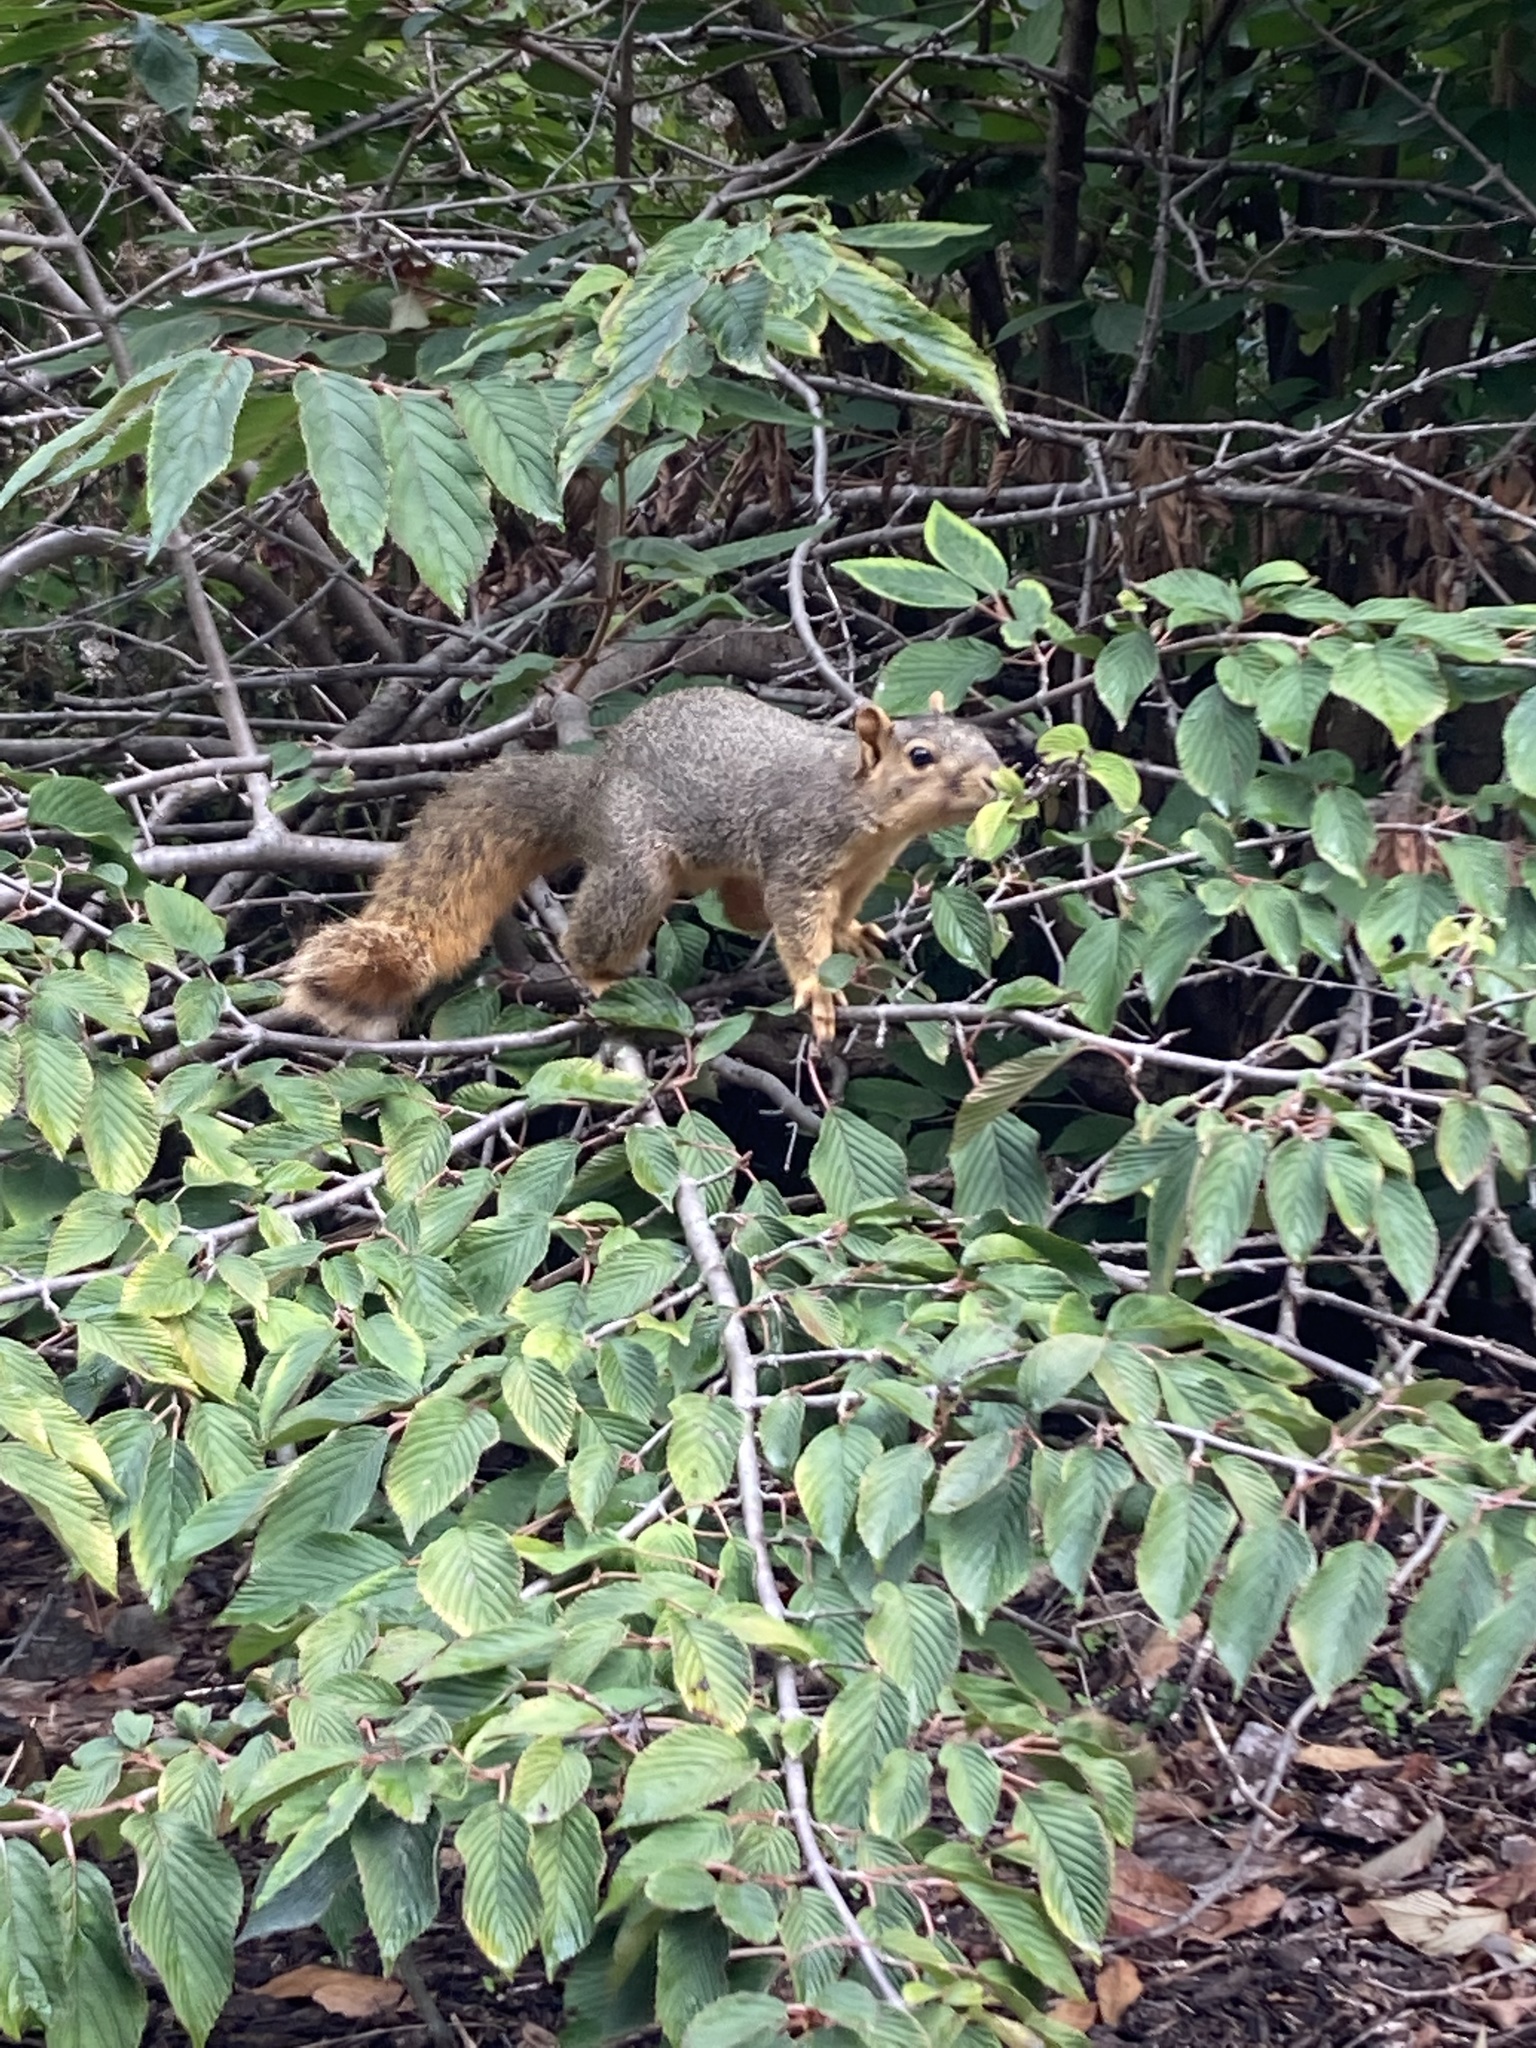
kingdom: Animalia
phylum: Chordata
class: Mammalia
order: Rodentia
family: Sciuridae
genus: Sciurus
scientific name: Sciurus niger
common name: Fox squirrel
